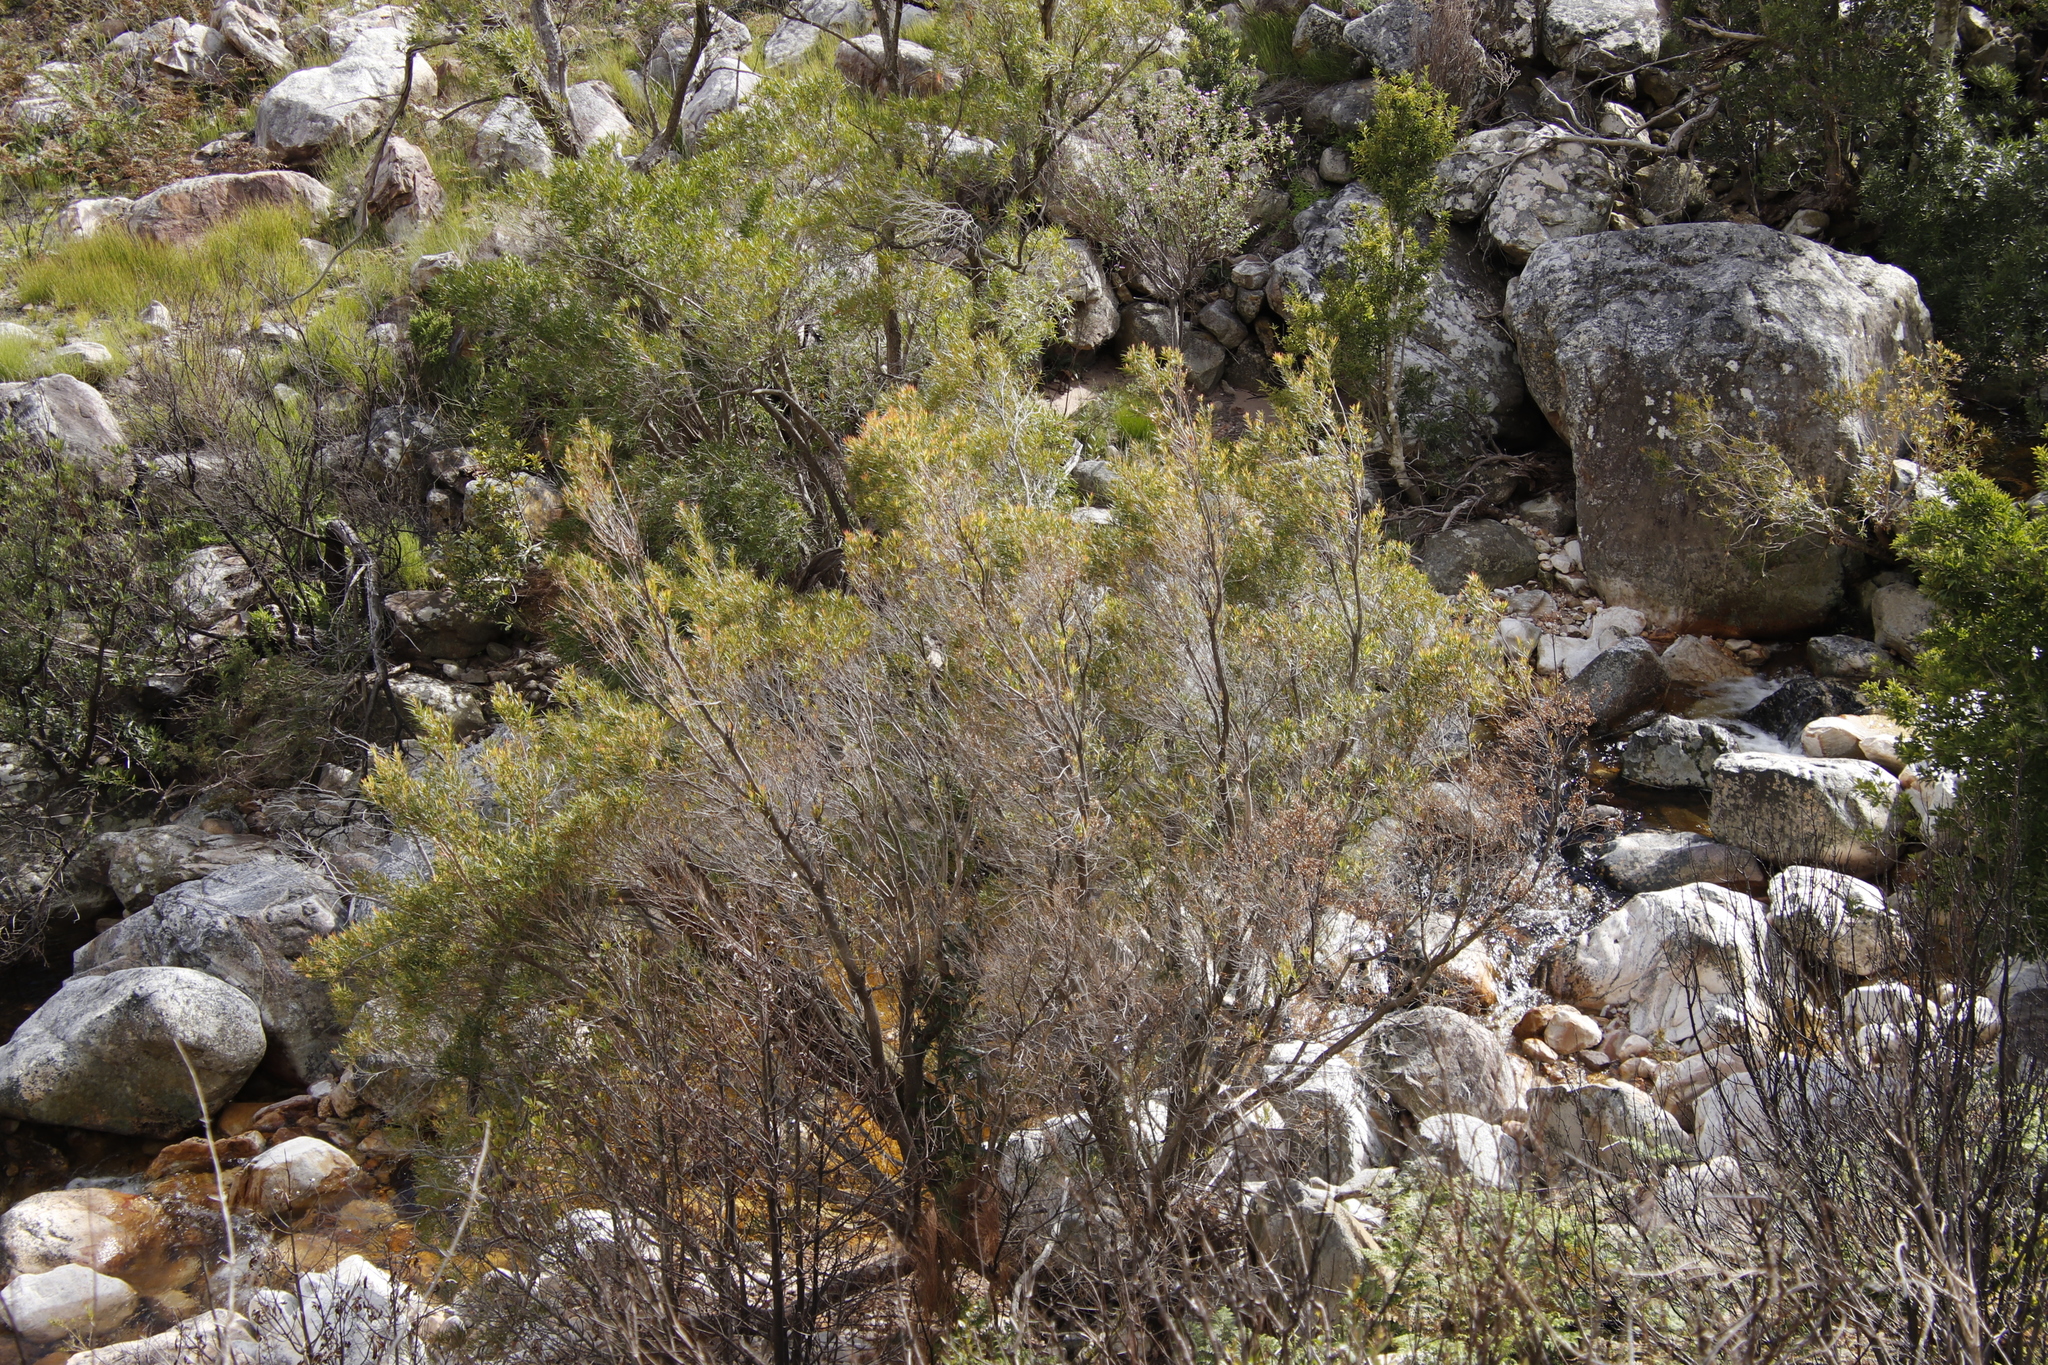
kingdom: Plantae
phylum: Tracheophyta
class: Magnoliopsida
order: Myrtales
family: Myrtaceae
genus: Callistemon
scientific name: Callistemon lanceolatus
